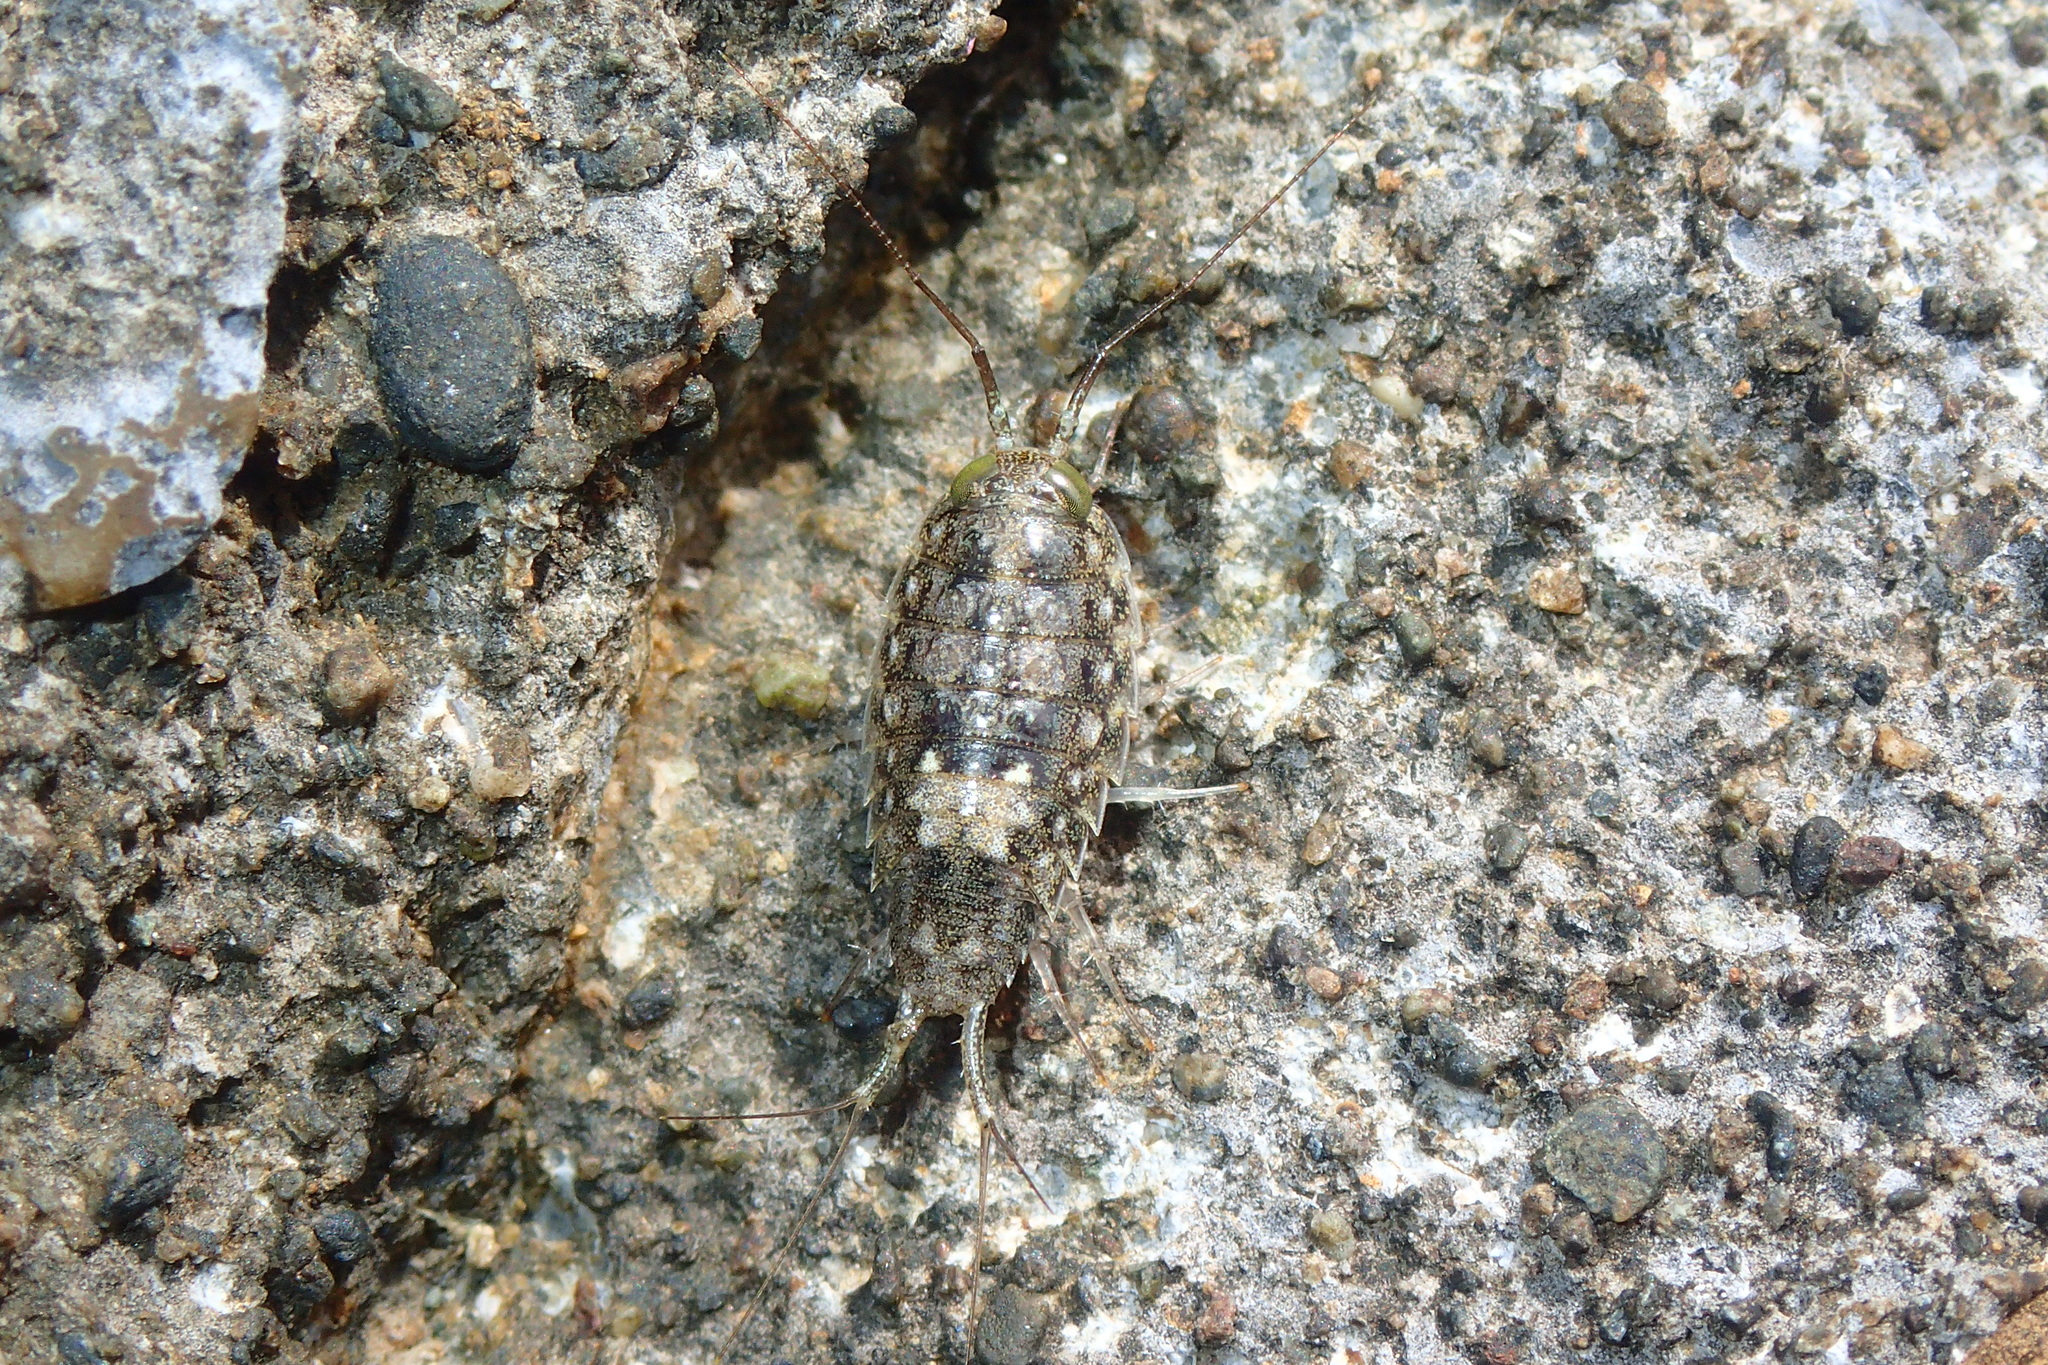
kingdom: Animalia
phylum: Arthropoda
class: Malacostraca
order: Isopoda
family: Ligiidae
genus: Ligia
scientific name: Ligia italica
